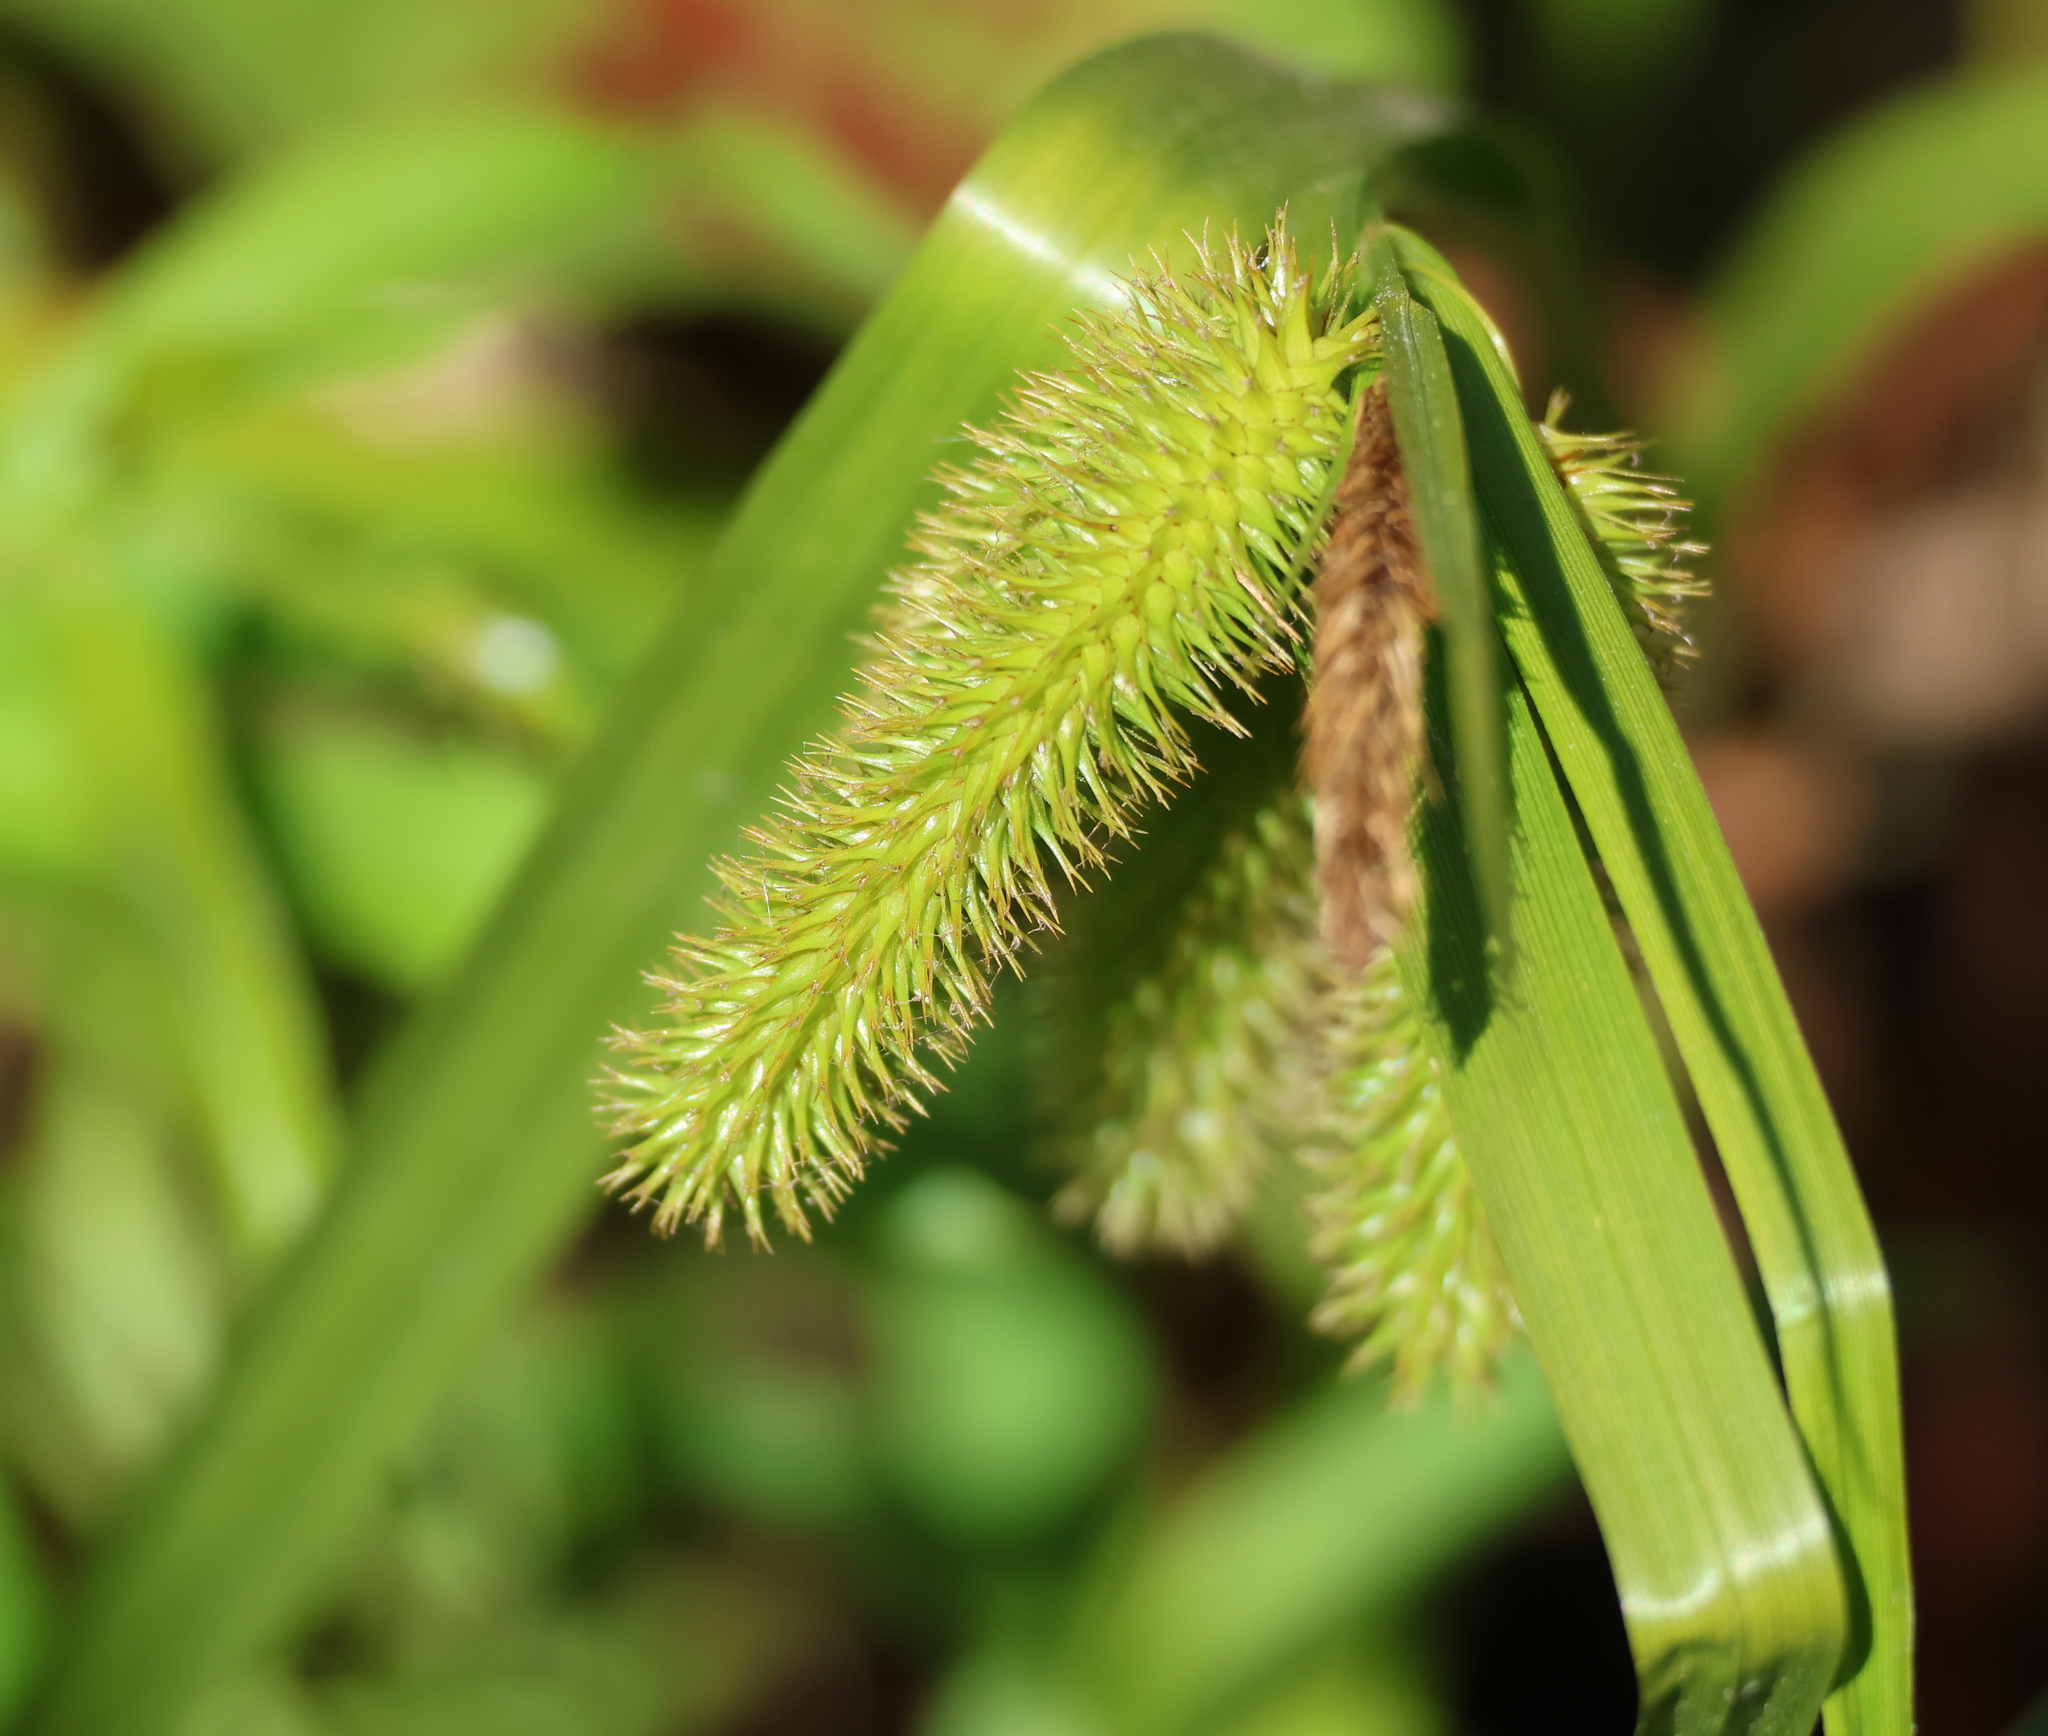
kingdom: Plantae
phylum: Tracheophyta
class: Liliopsida
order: Poales
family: Cyperaceae
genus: Carex
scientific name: Carex comosa
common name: Bristly sedge
